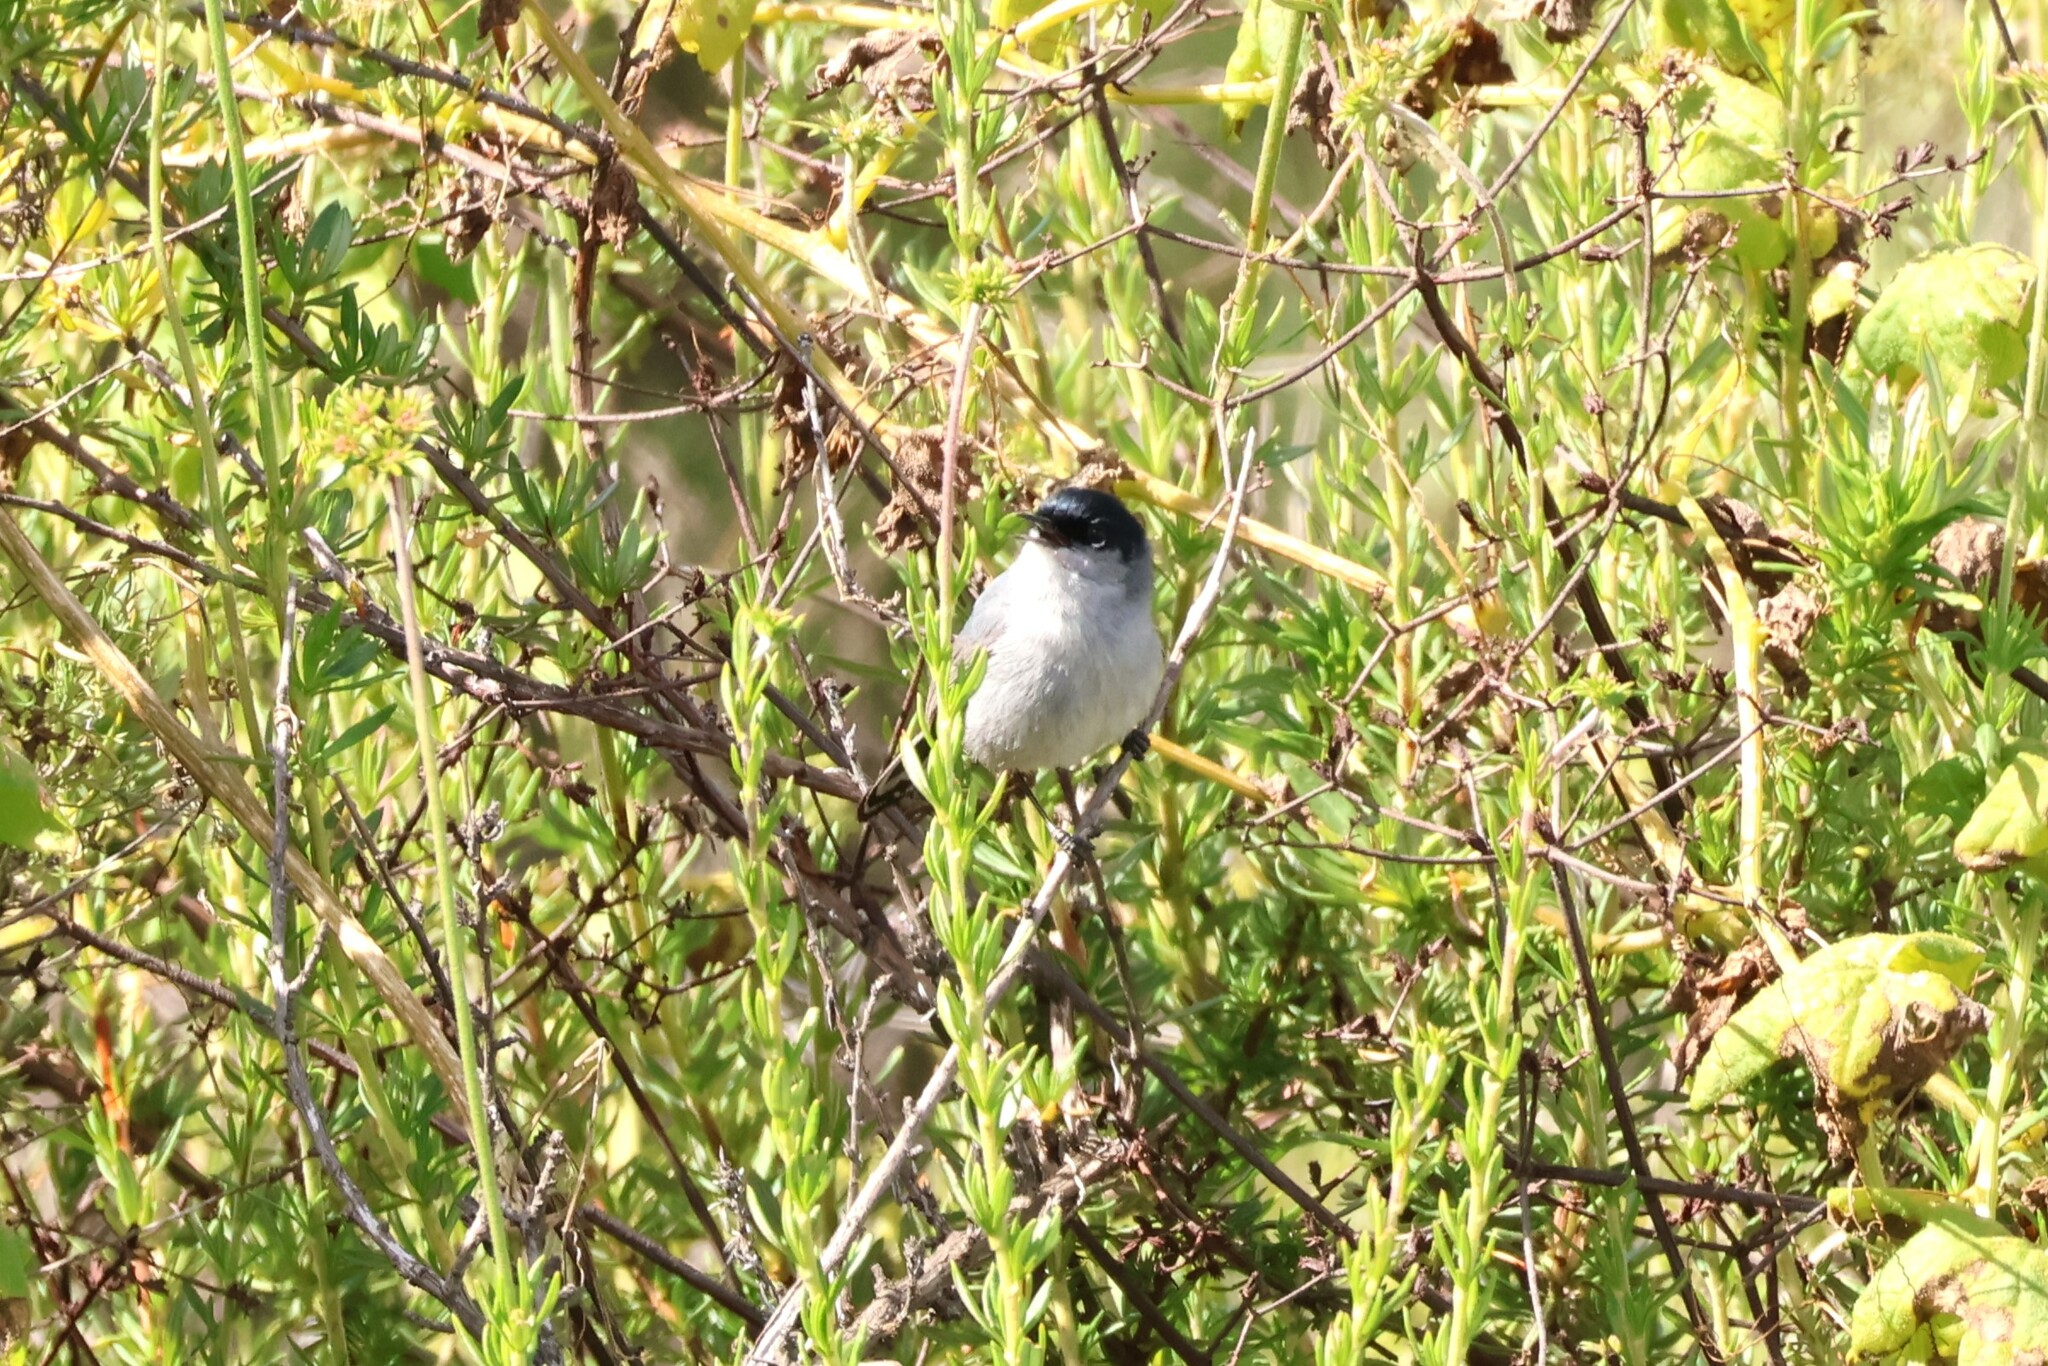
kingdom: Animalia
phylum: Chordata
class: Aves
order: Passeriformes
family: Polioptilidae
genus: Polioptila
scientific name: Polioptila californica
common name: California gnatcatcher
